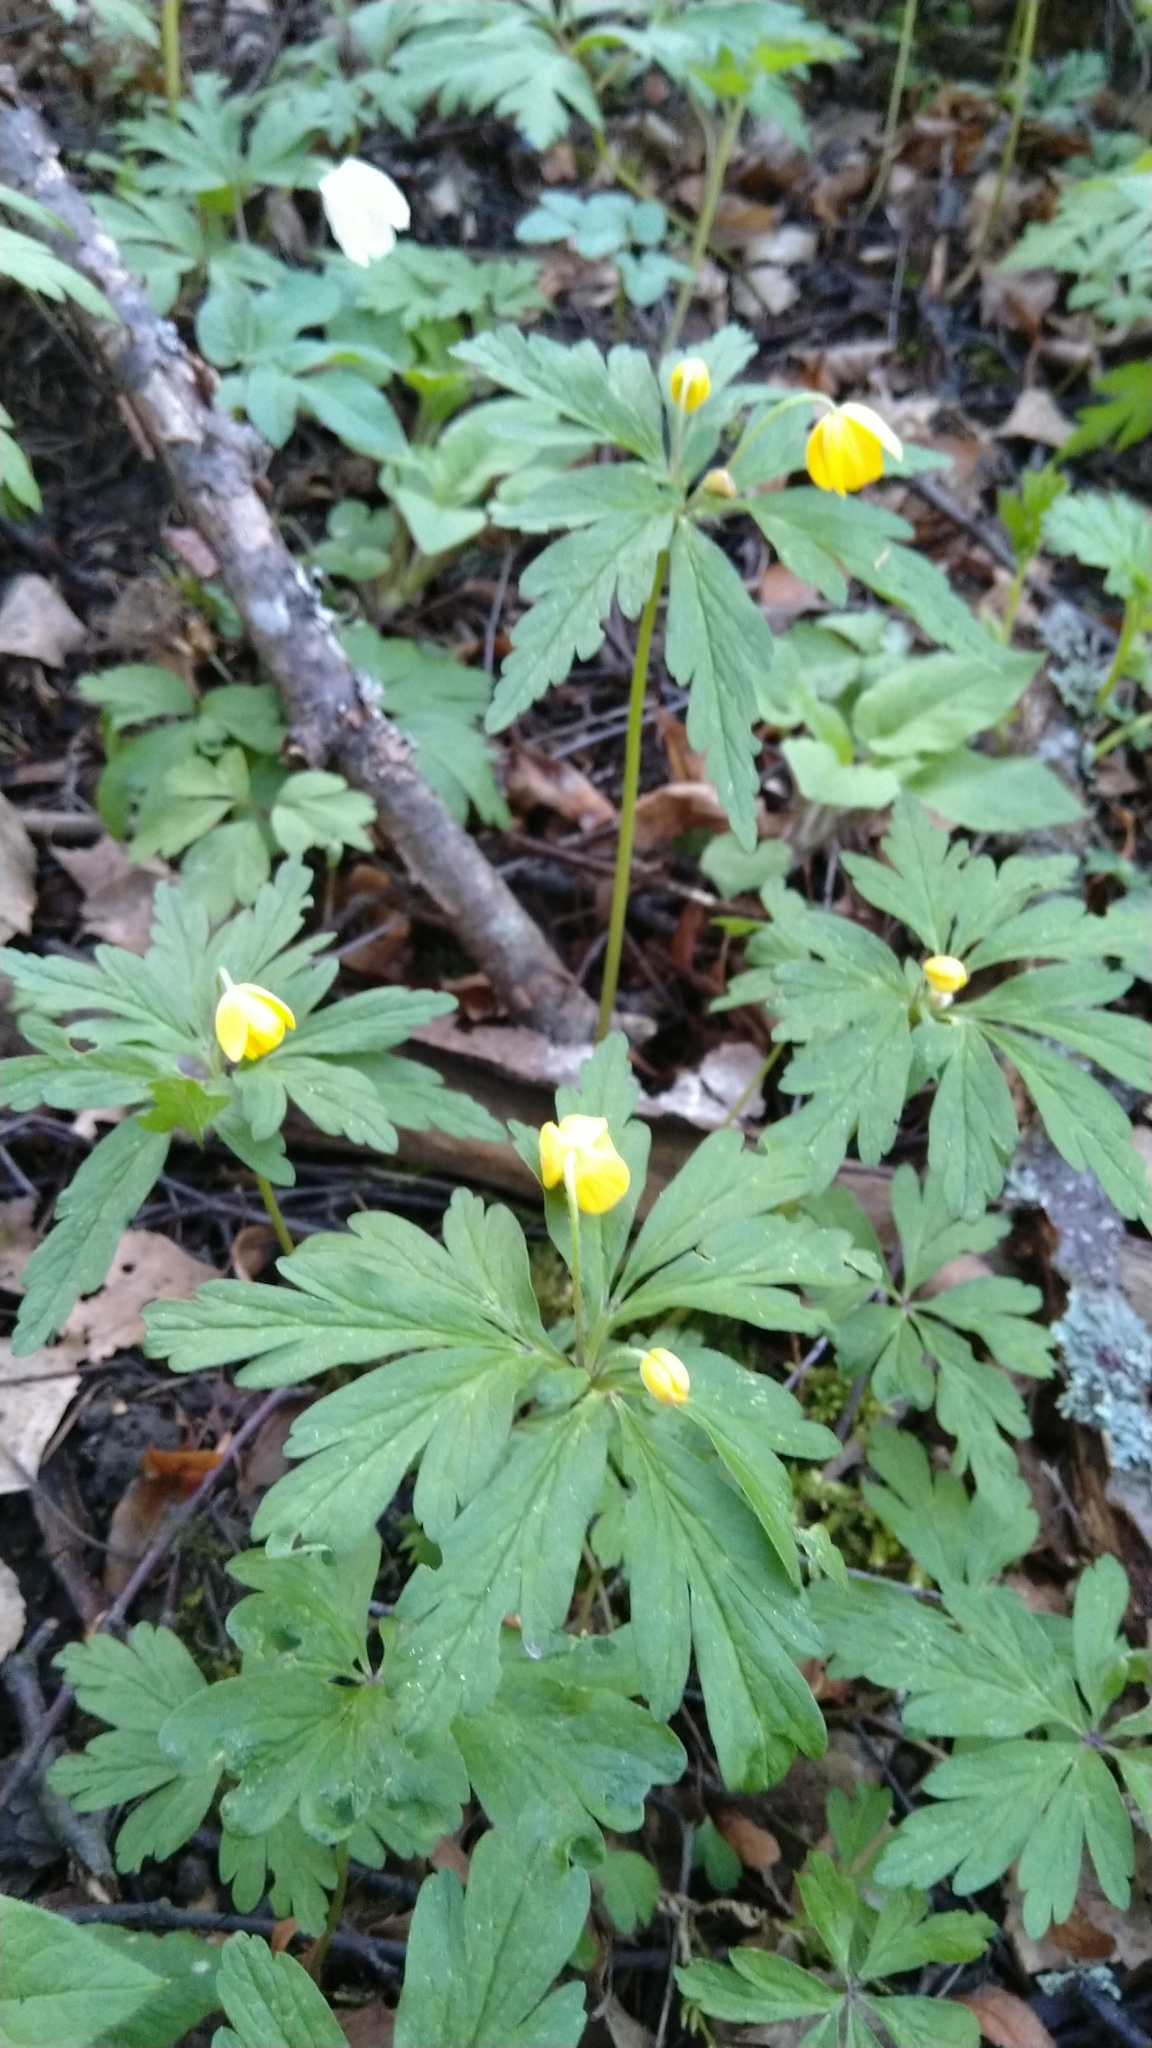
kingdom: Plantae
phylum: Tracheophyta
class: Magnoliopsida
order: Ranunculales
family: Ranunculaceae
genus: Anemone
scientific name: Anemone ranunculoides
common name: Yellow anemone
